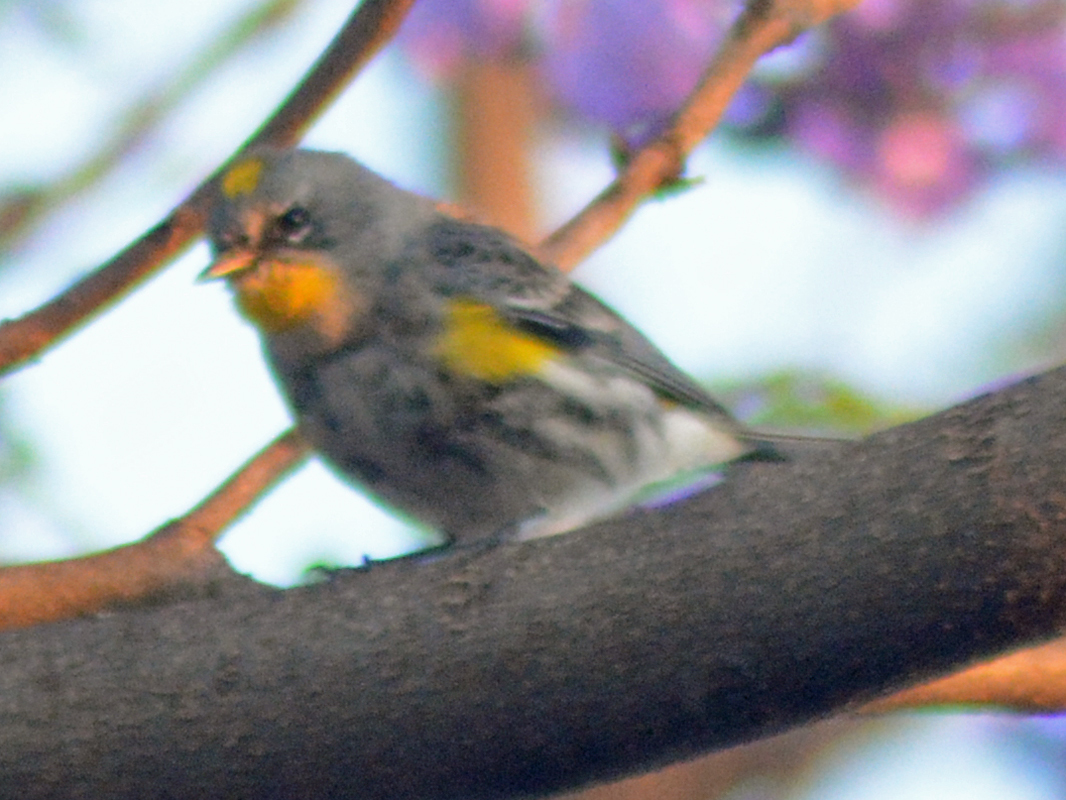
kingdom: Animalia
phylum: Chordata
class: Aves
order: Passeriformes
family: Parulidae
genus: Setophaga
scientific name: Setophaga auduboni
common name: Audubon's warbler
